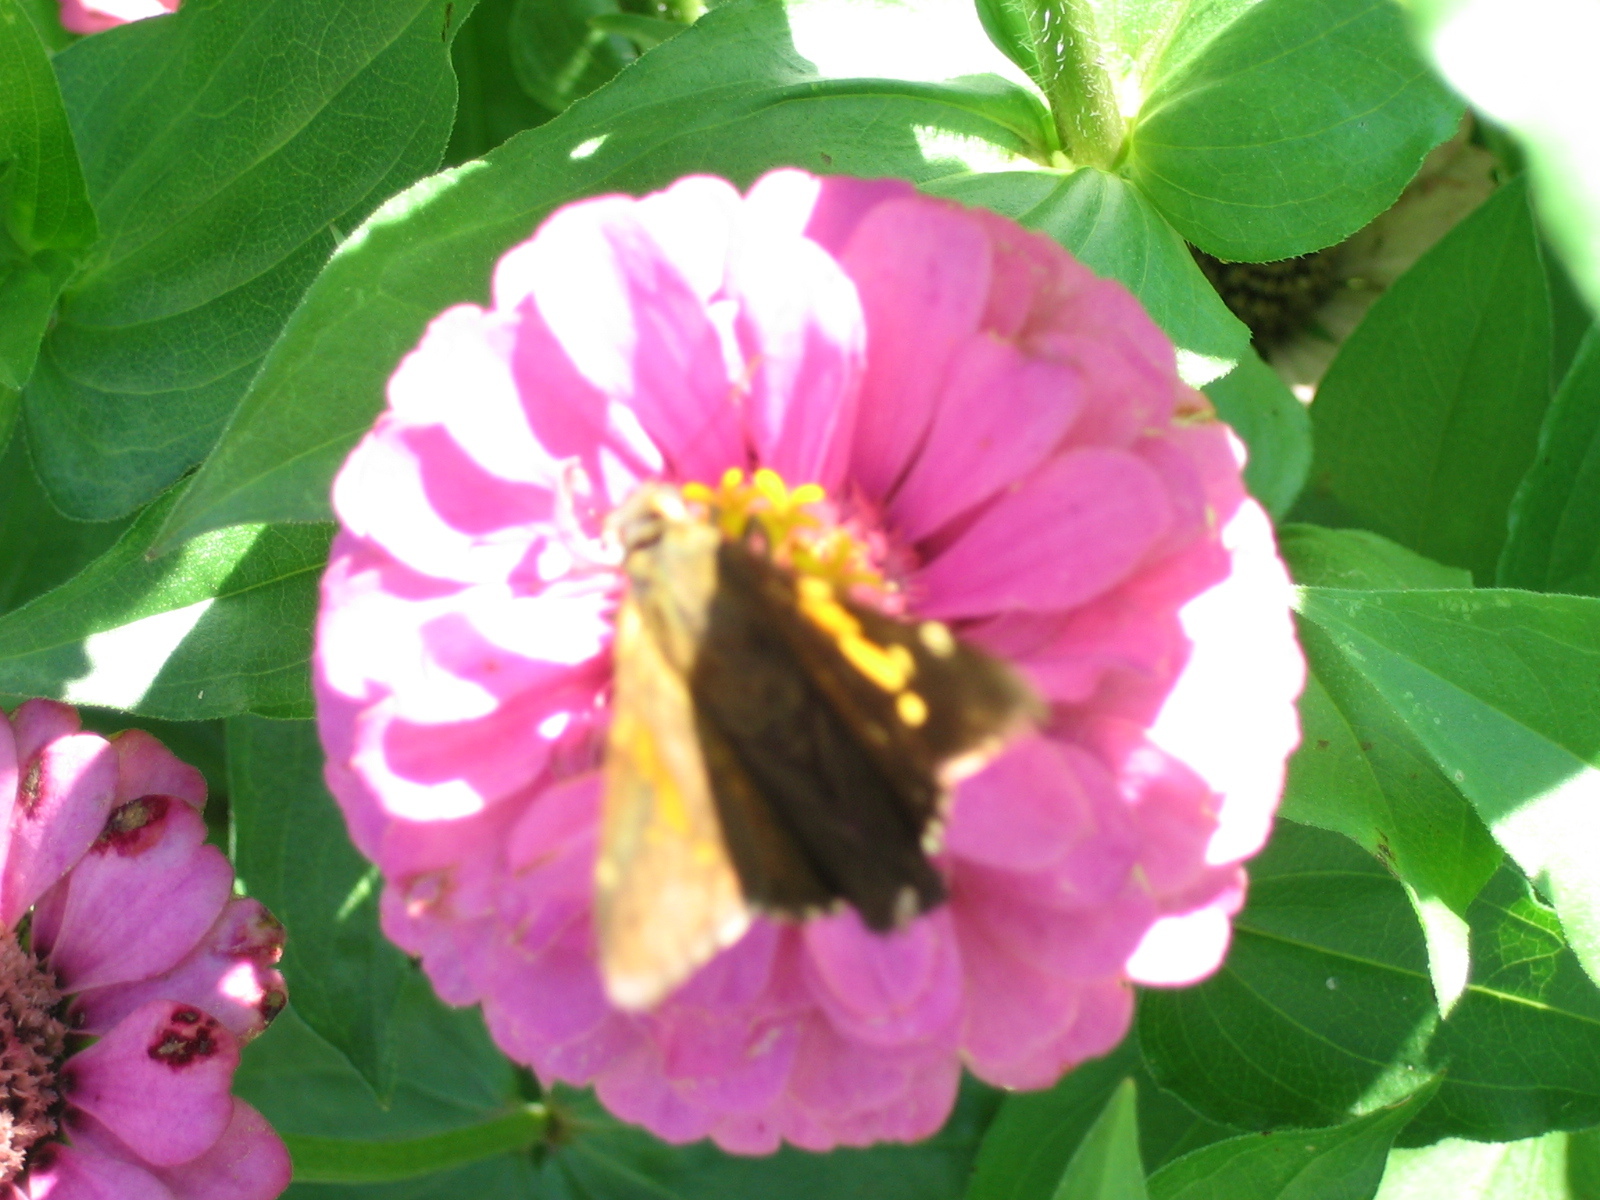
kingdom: Animalia
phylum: Arthropoda
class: Insecta
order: Lepidoptera
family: Hesperiidae
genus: Epargyreus
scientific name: Epargyreus clarus
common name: Silver-spotted skipper
